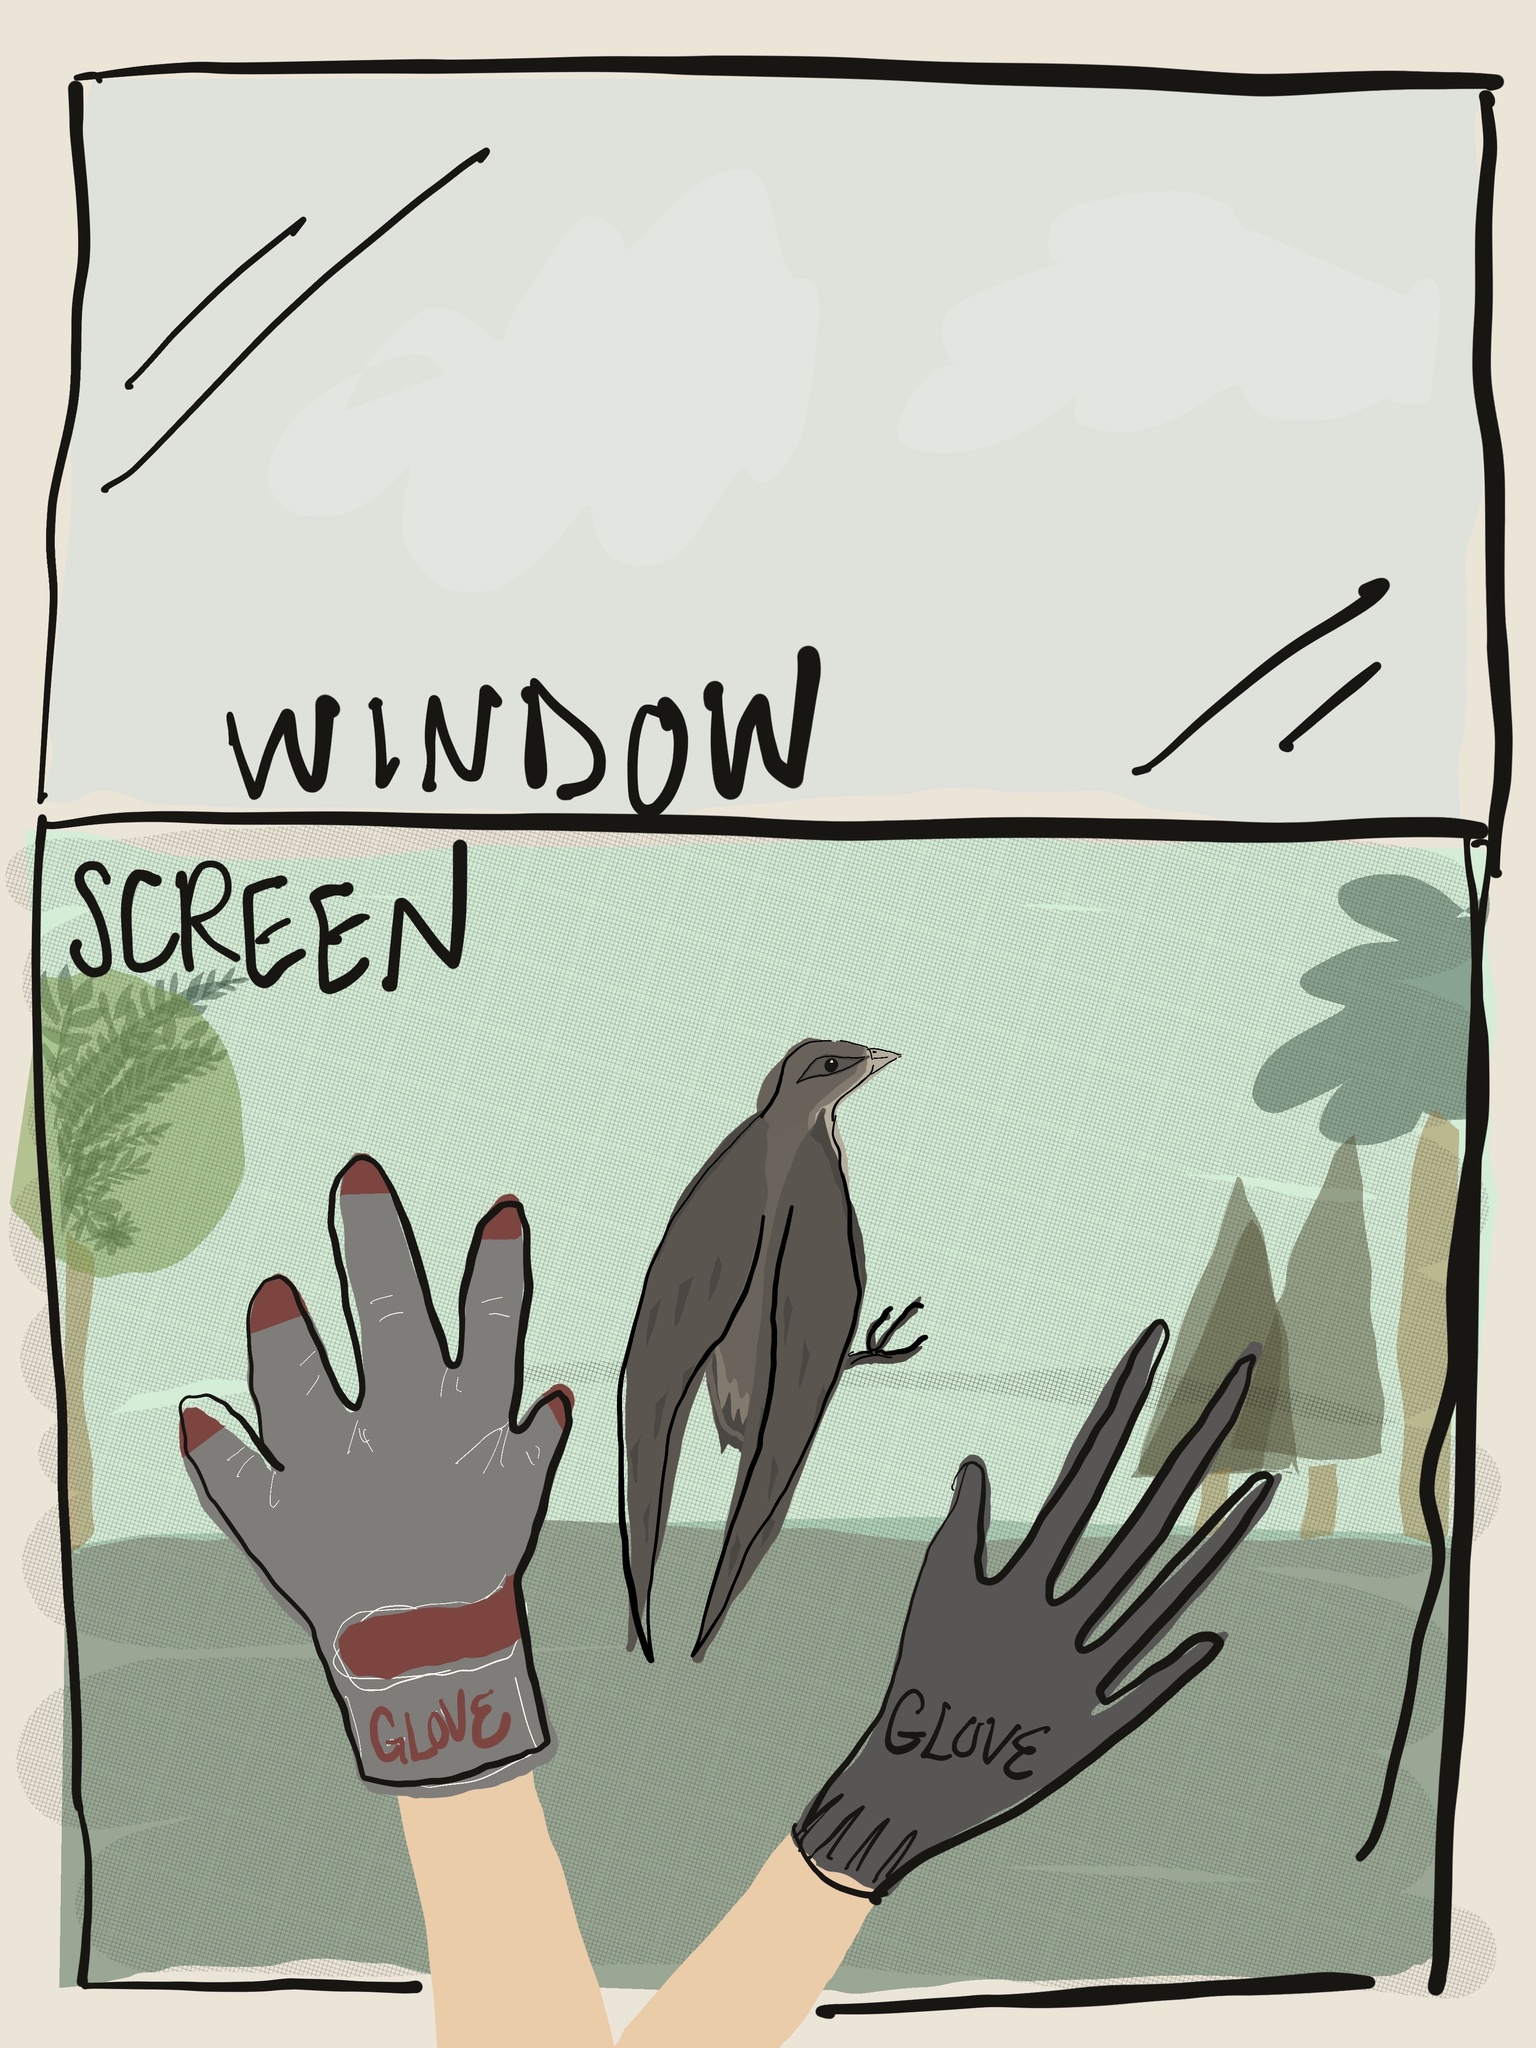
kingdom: Animalia
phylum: Chordata
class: Aves
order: Apodiformes
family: Apodidae
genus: Chaetura
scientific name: Chaetura pelagica
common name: Chimney swift
